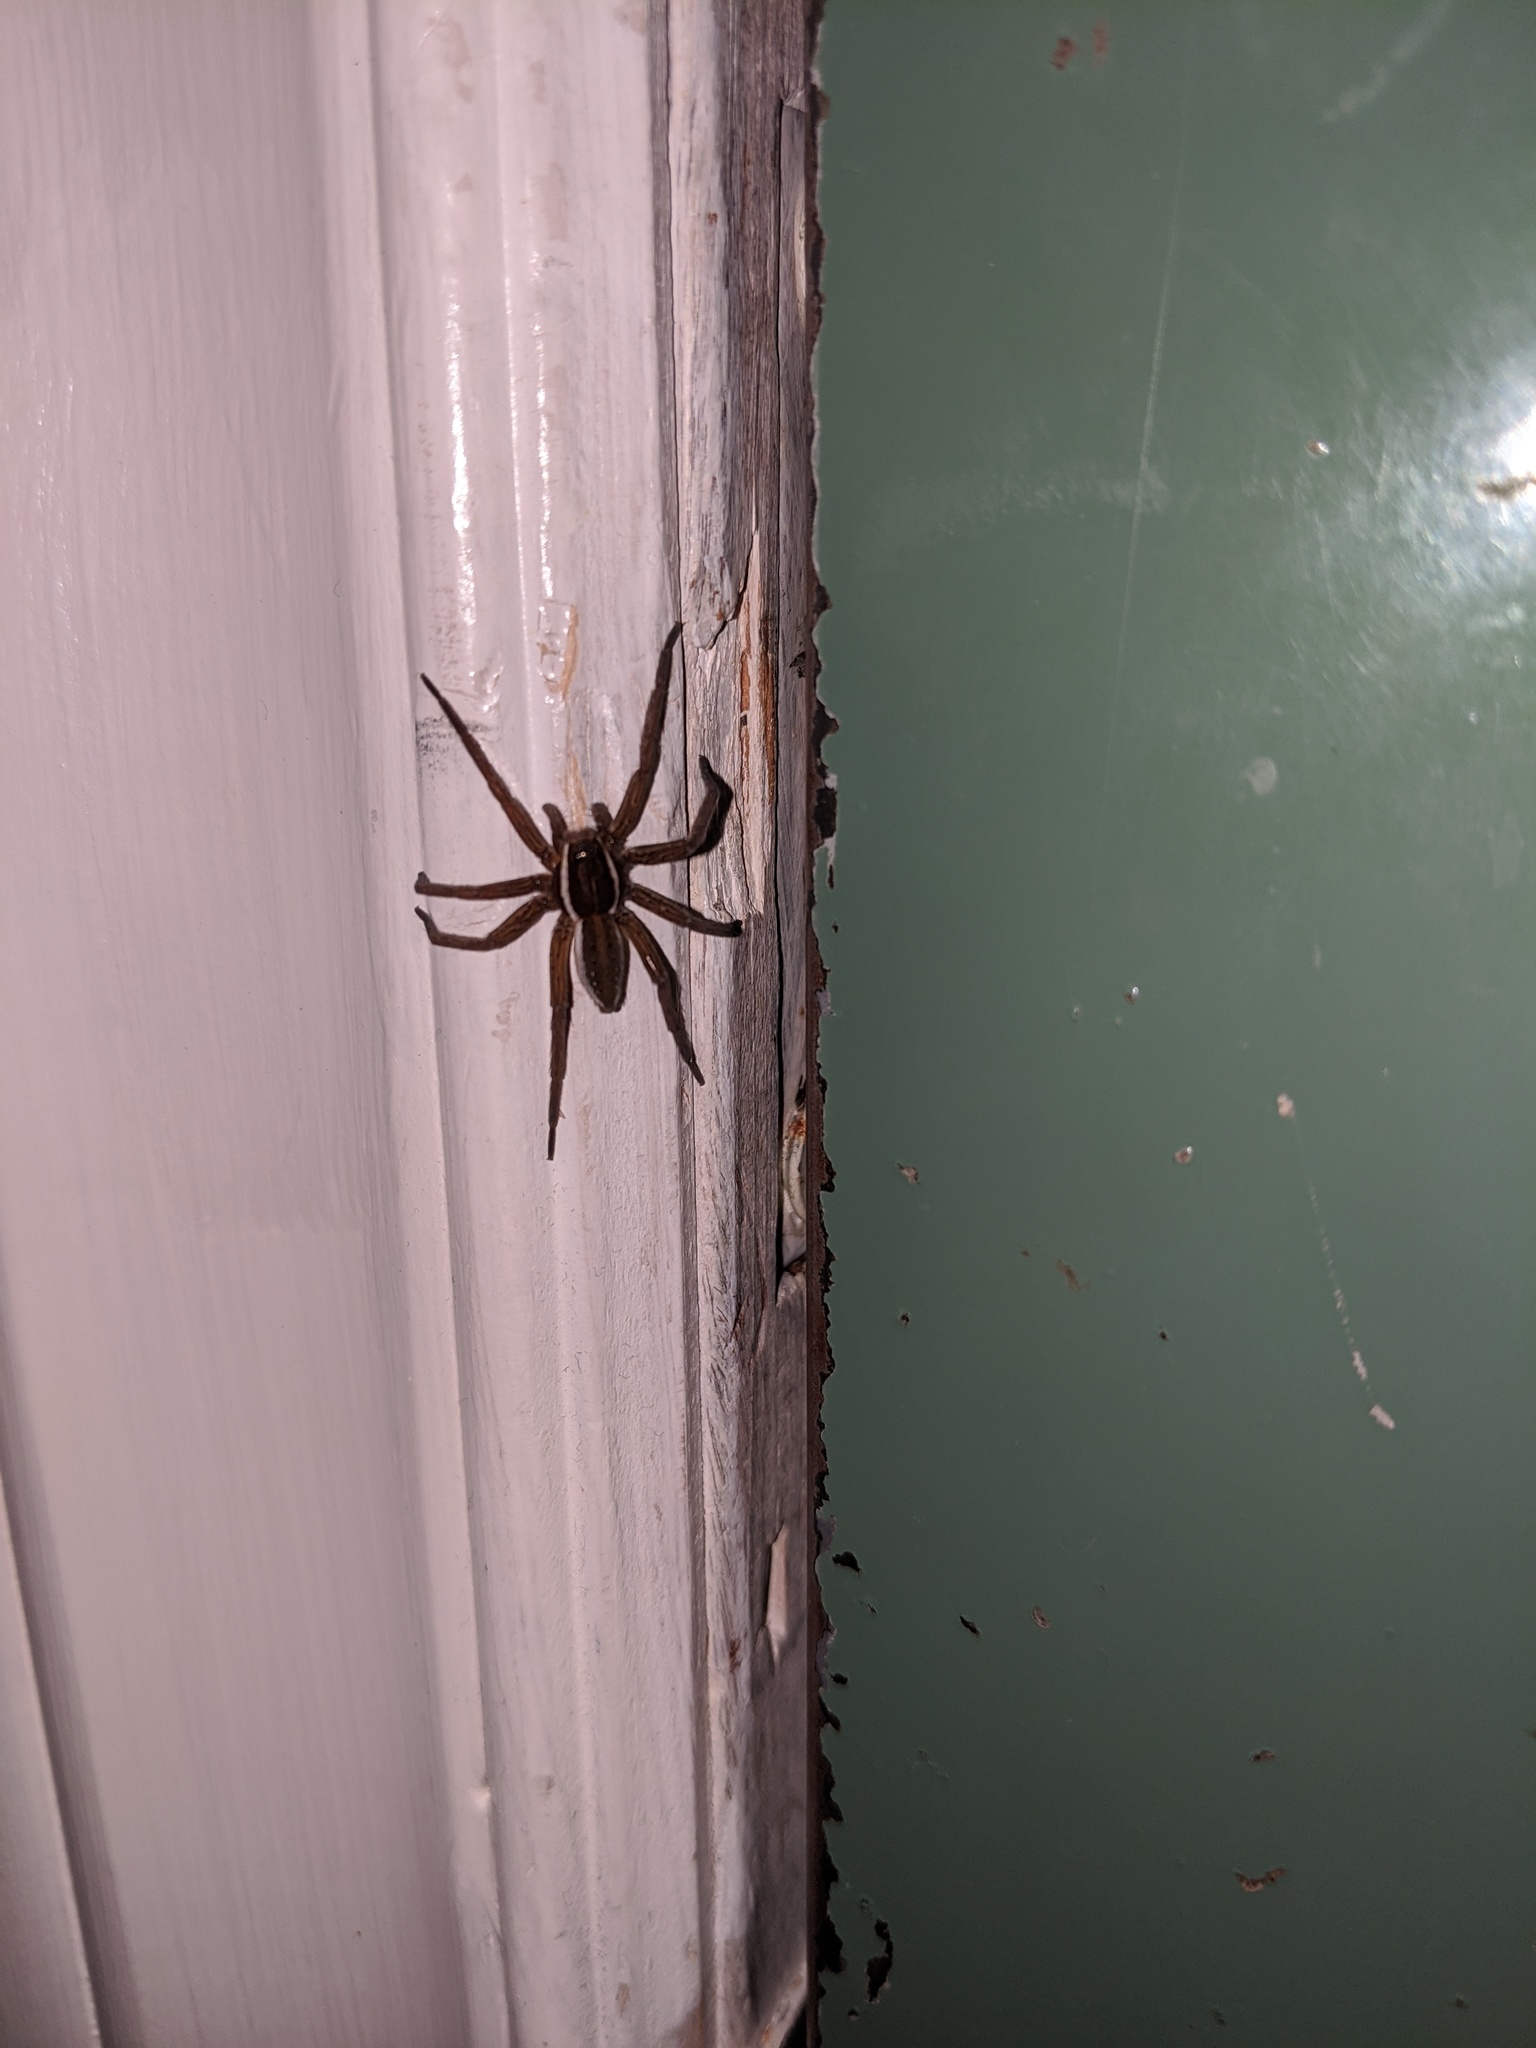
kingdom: Animalia
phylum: Arthropoda
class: Arachnida
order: Araneae
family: Pisauridae
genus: Dolomedes
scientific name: Dolomedes triton
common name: Six-spotted fishing spider
